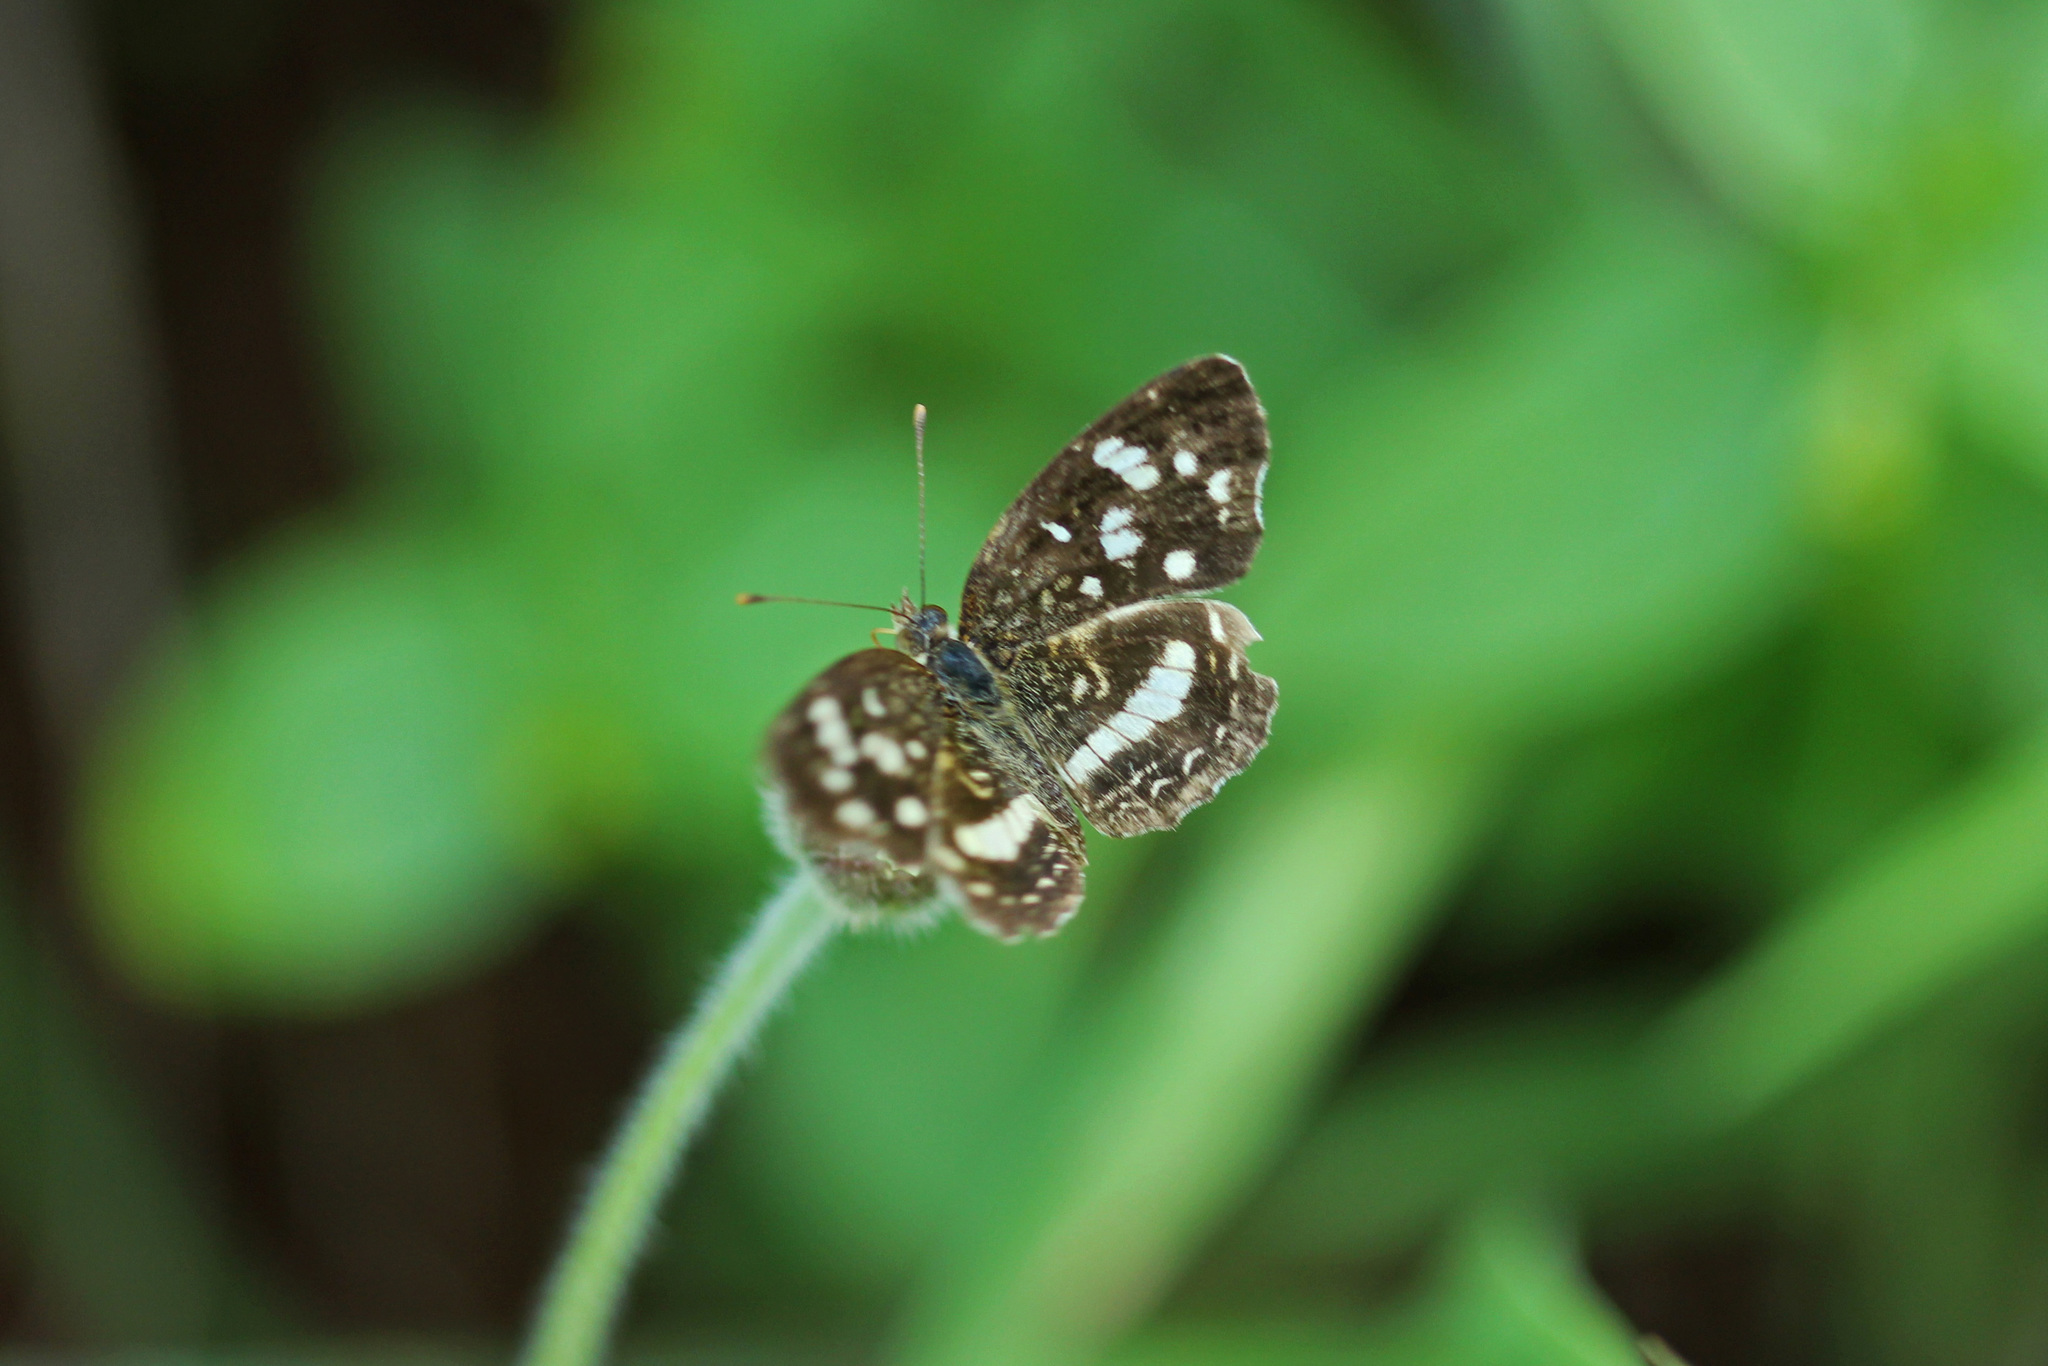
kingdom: Animalia
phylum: Arthropoda
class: Insecta
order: Lepidoptera
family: Nymphalidae
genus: Anthanassa
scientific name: Anthanassa tulcis
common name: Pale-banded crescent
